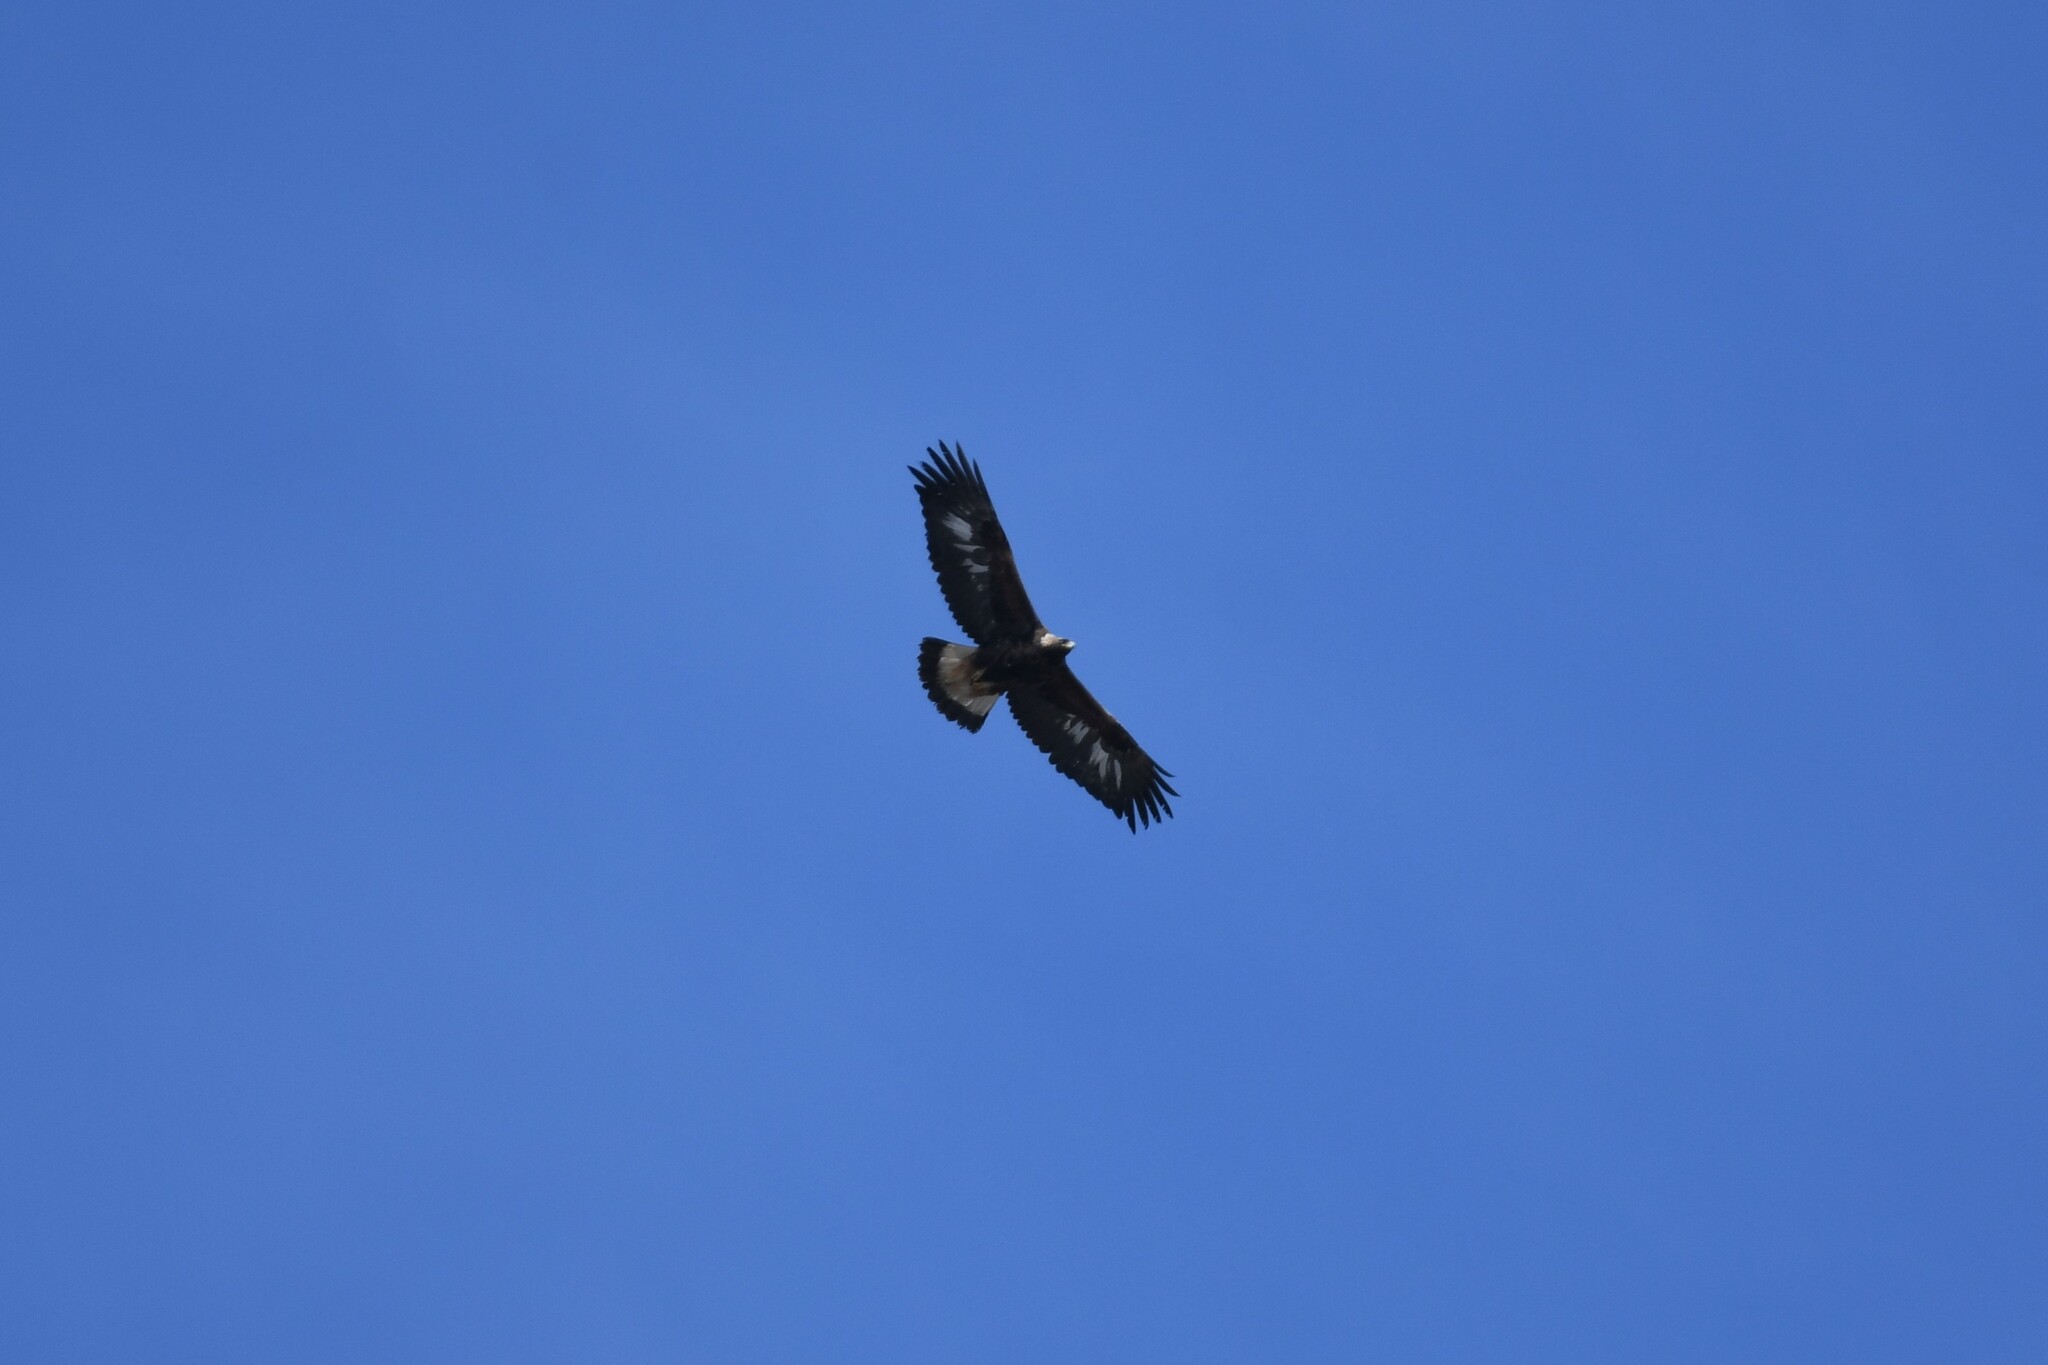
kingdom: Animalia
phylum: Chordata
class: Aves
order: Accipitriformes
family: Accipitridae
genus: Aquila
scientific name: Aquila chrysaetos
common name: Golden eagle
